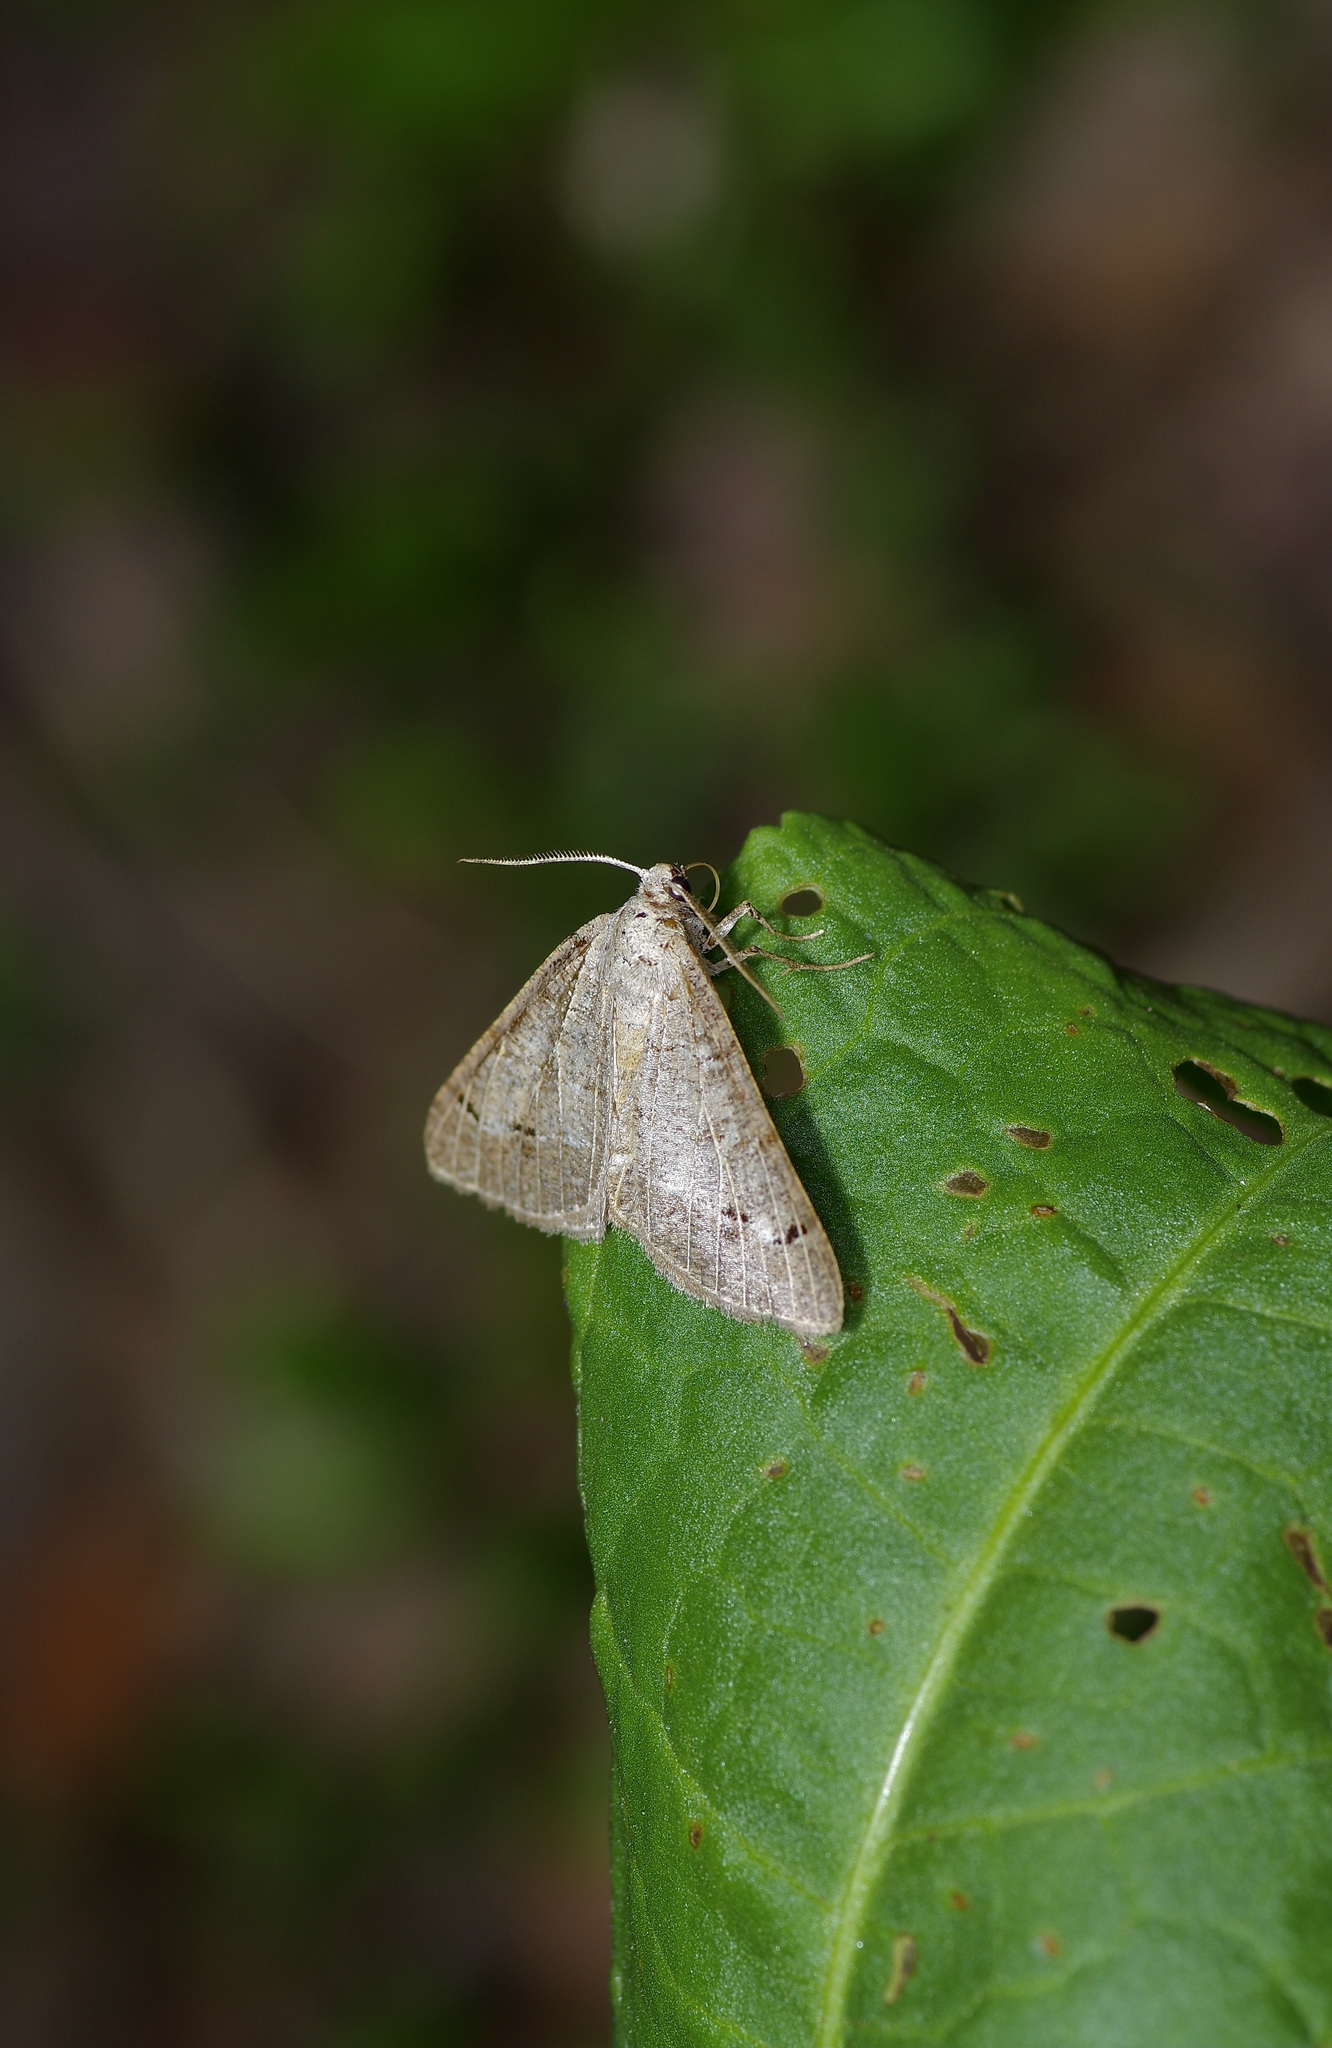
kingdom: Animalia
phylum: Arthropoda
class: Insecta
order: Lepidoptera
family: Geometridae
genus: Isturgia
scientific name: Isturgia dislocaria
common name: Pale-viened enconista
